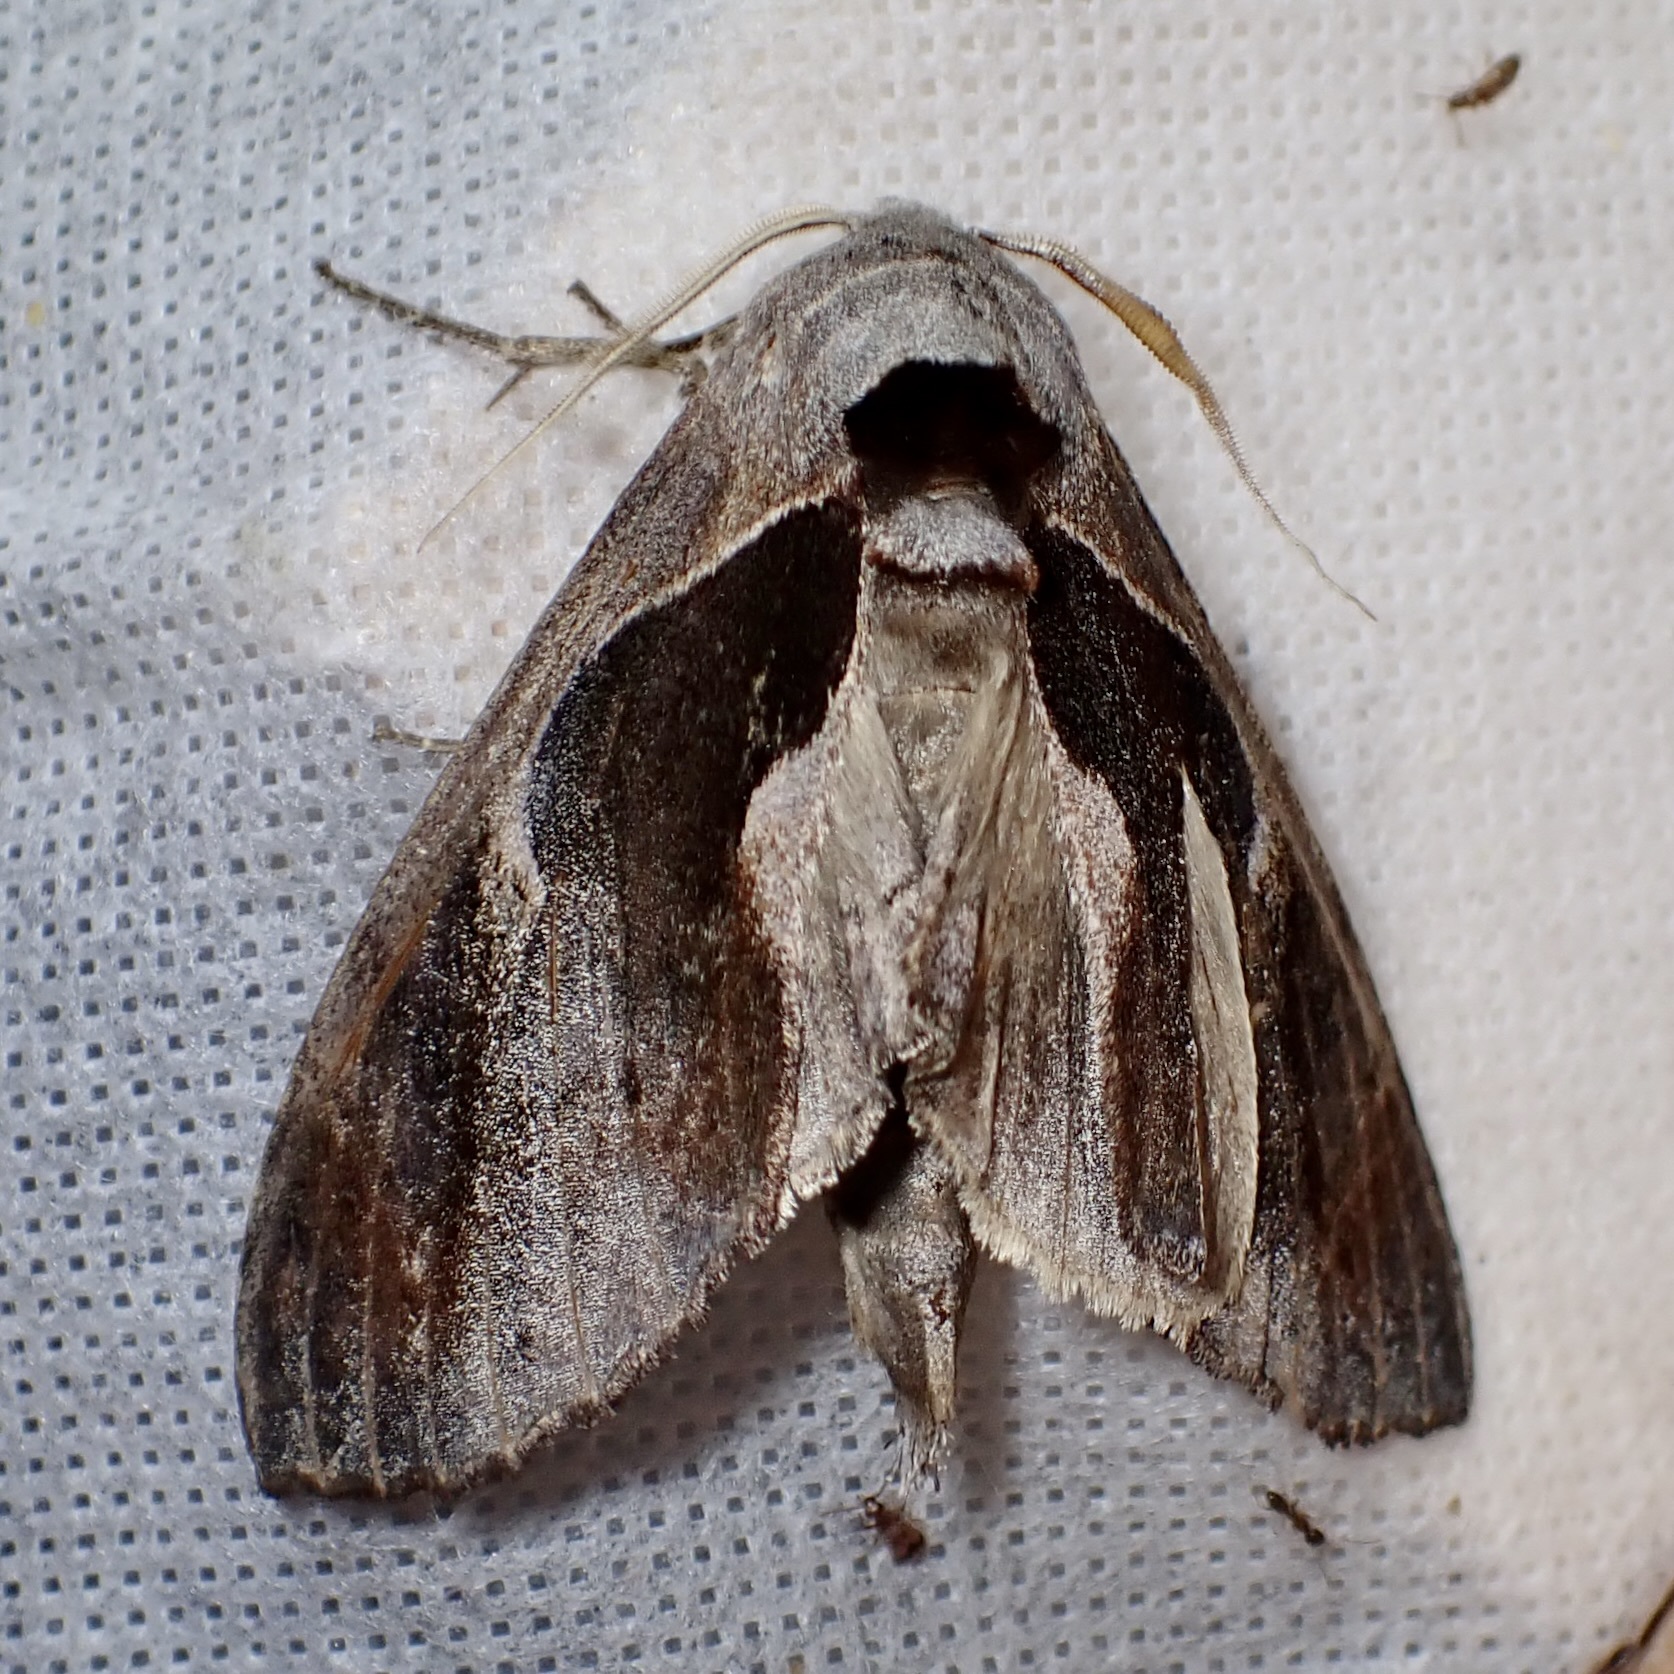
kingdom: Animalia
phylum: Arthropoda
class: Insecta
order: Lepidoptera
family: Notodontidae
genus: Crinodes
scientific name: Crinodes biedermani
